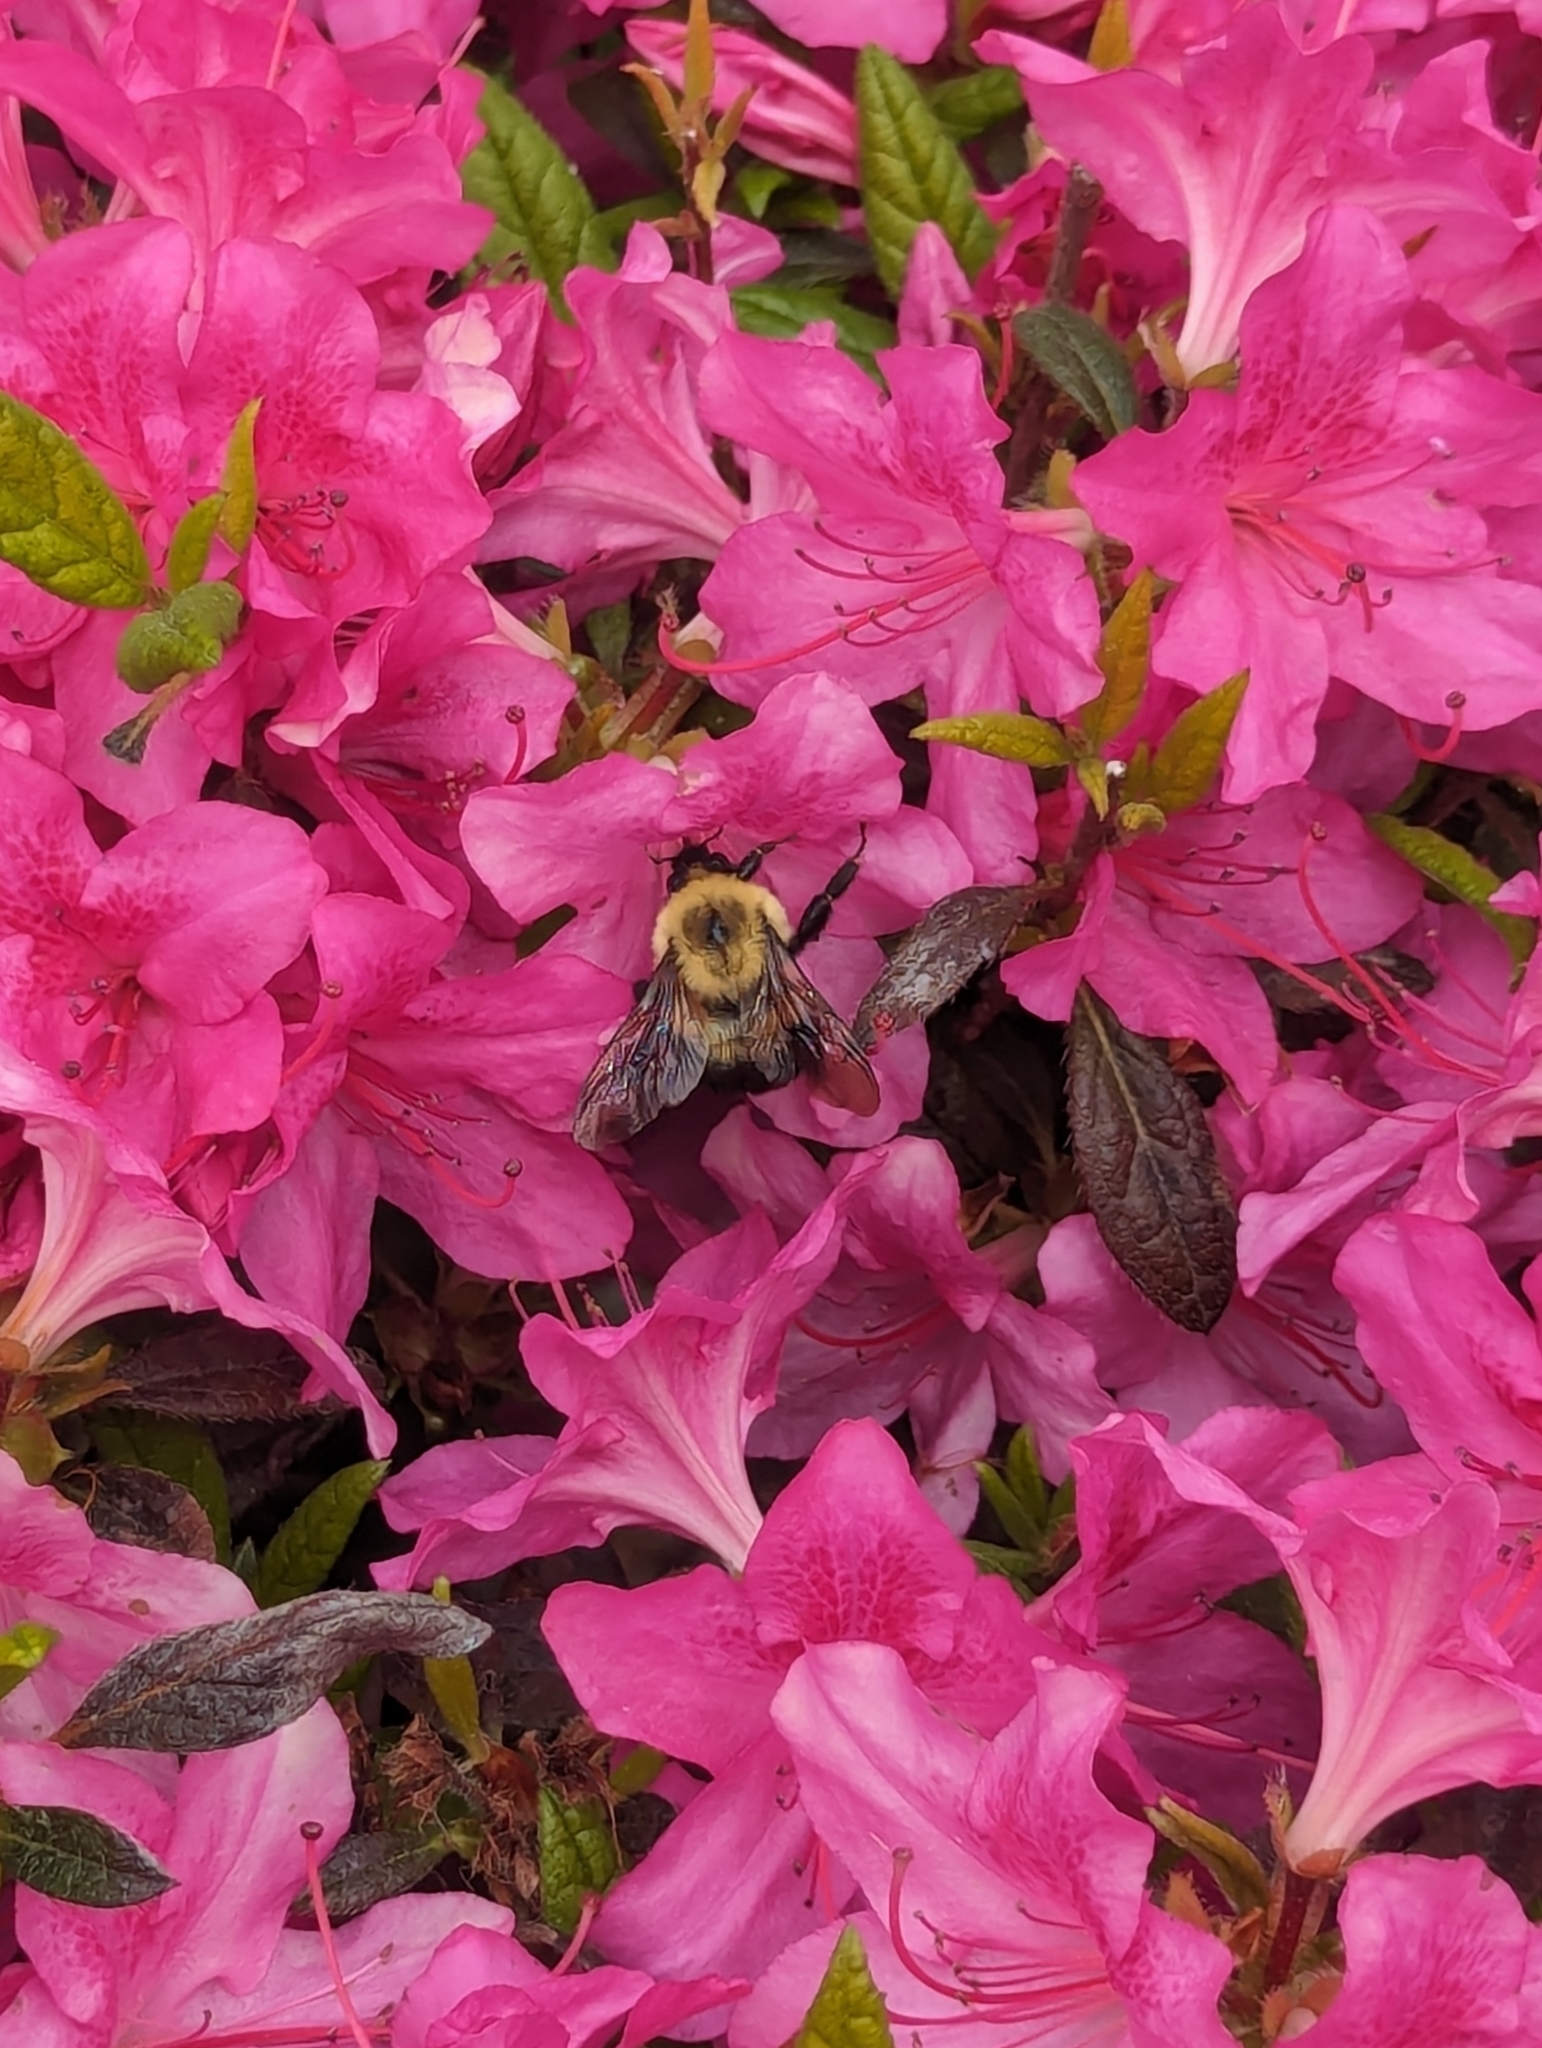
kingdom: Animalia
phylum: Arthropoda
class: Insecta
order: Hymenoptera
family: Apidae
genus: Bombus
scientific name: Bombus bimaculatus
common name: Two-spotted bumble bee
